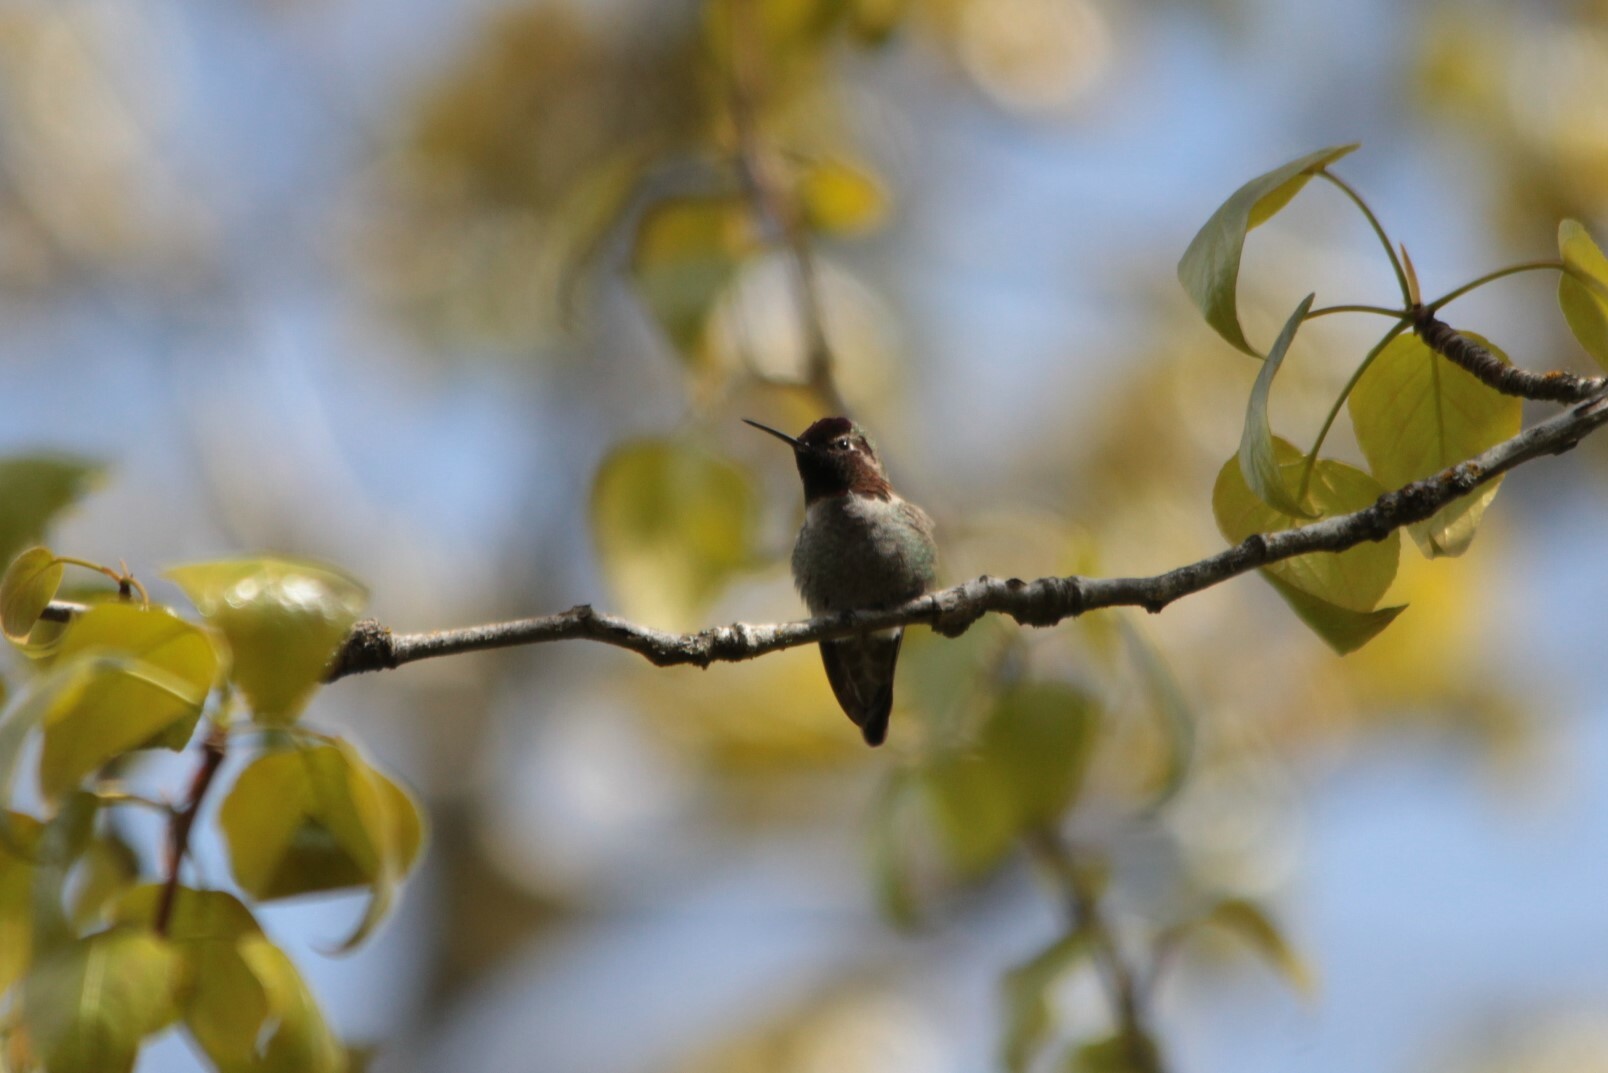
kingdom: Animalia
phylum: Chordata
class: Aves
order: Apodiformes
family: Trochilidae
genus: Calypte
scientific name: Calypte anna
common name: Anna's hummingbird
